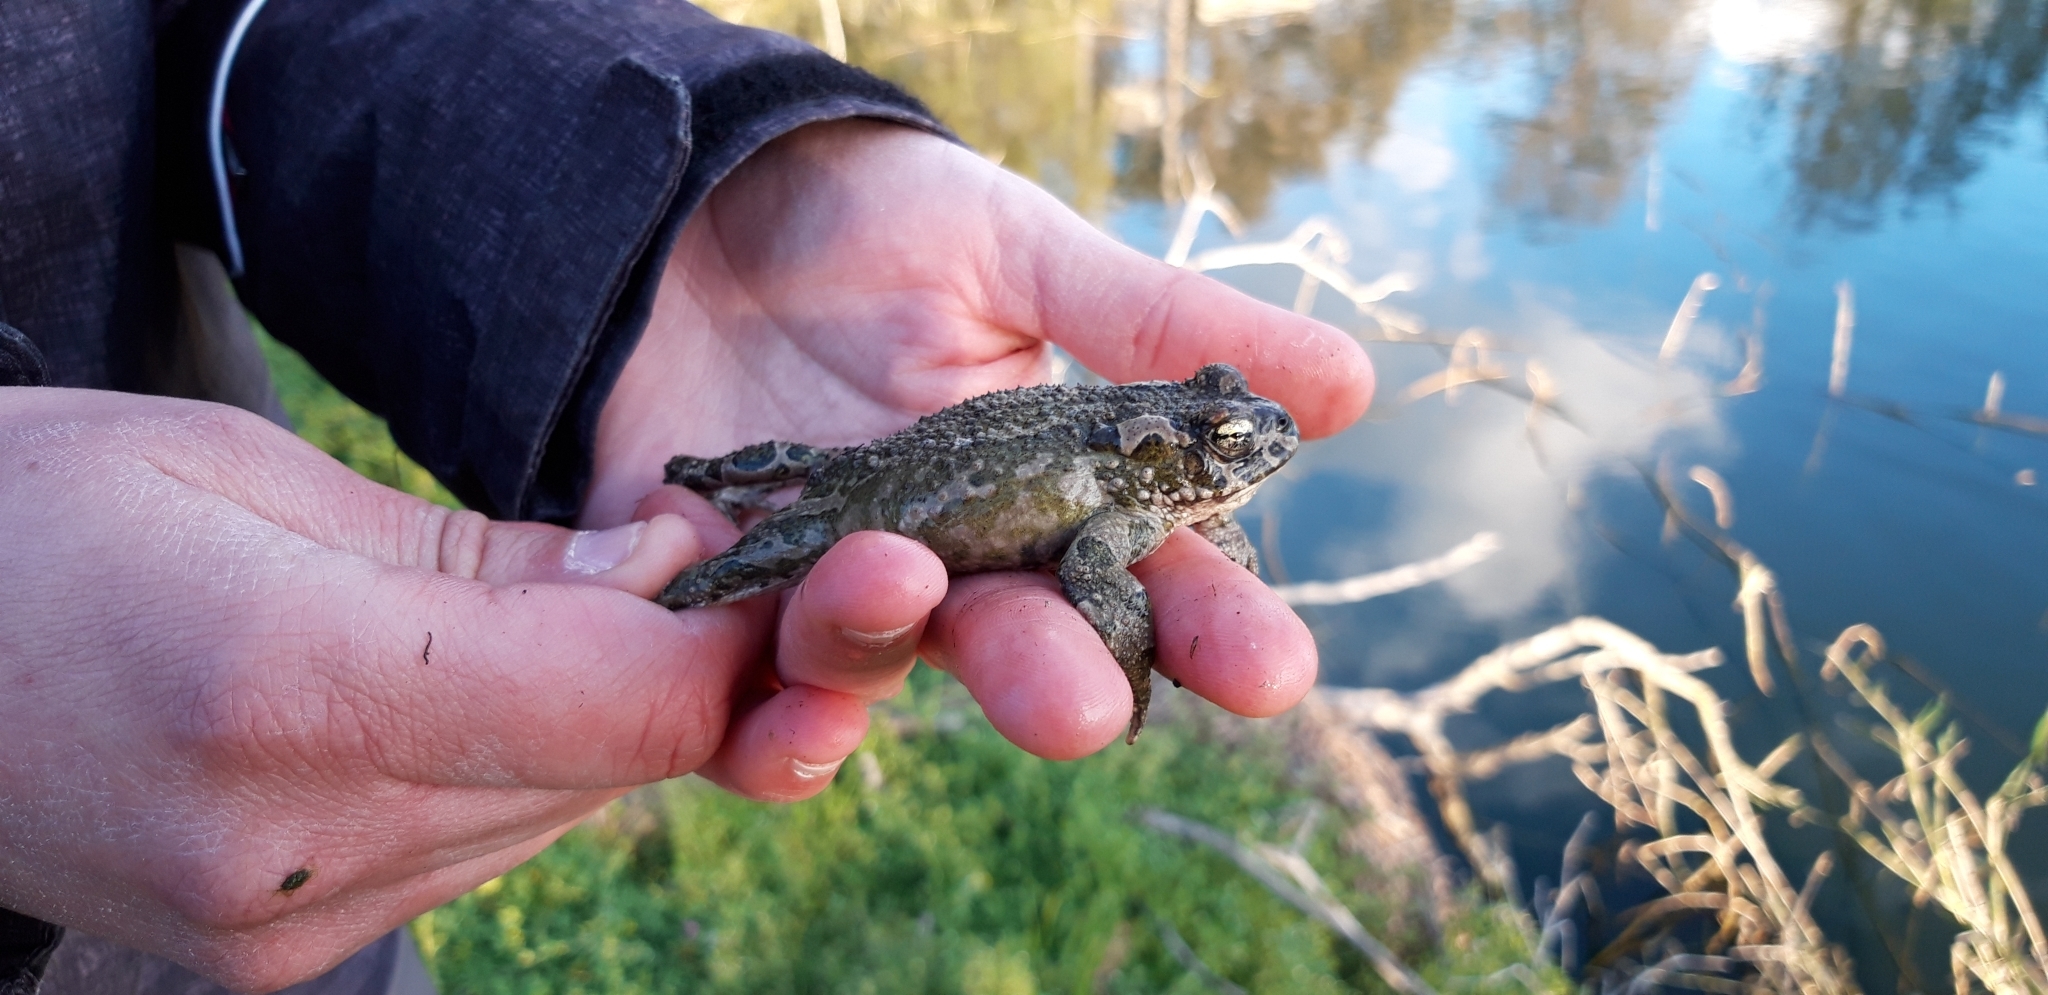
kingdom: Animalia
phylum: Chordata
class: Amphibia
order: Anura
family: Bufonidae
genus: Bufotes
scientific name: Bufotes cypriensis
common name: Cyprus green toad
